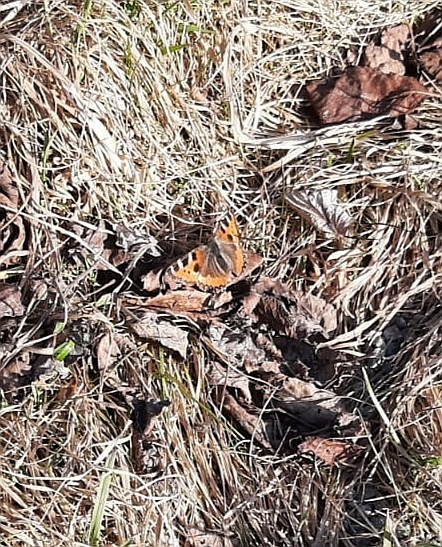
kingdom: Animalia
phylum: Arthropoda
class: Insecta
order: Lepidoptera
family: Nymphalidae
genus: Aglais
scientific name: Aglais urticae
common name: Small tortoiseshell
